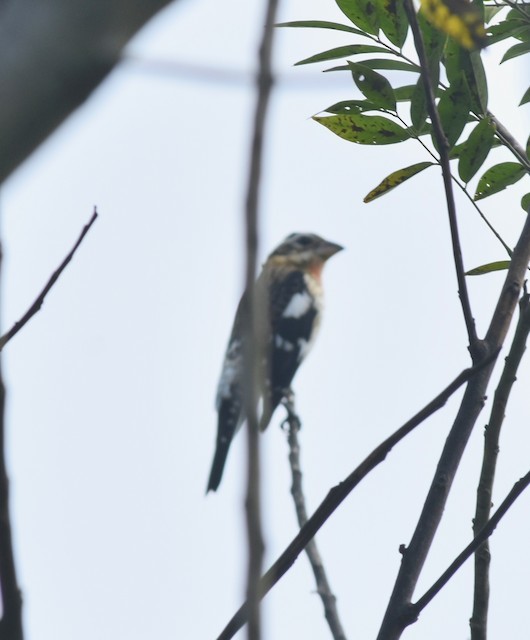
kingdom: Animalia
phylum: Chordata
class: Aves
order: Passeriformes
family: Cardinalidae
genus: Pheucticus
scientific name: Pheucticus ludovicianus
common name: Rose-breasted grosbeak
